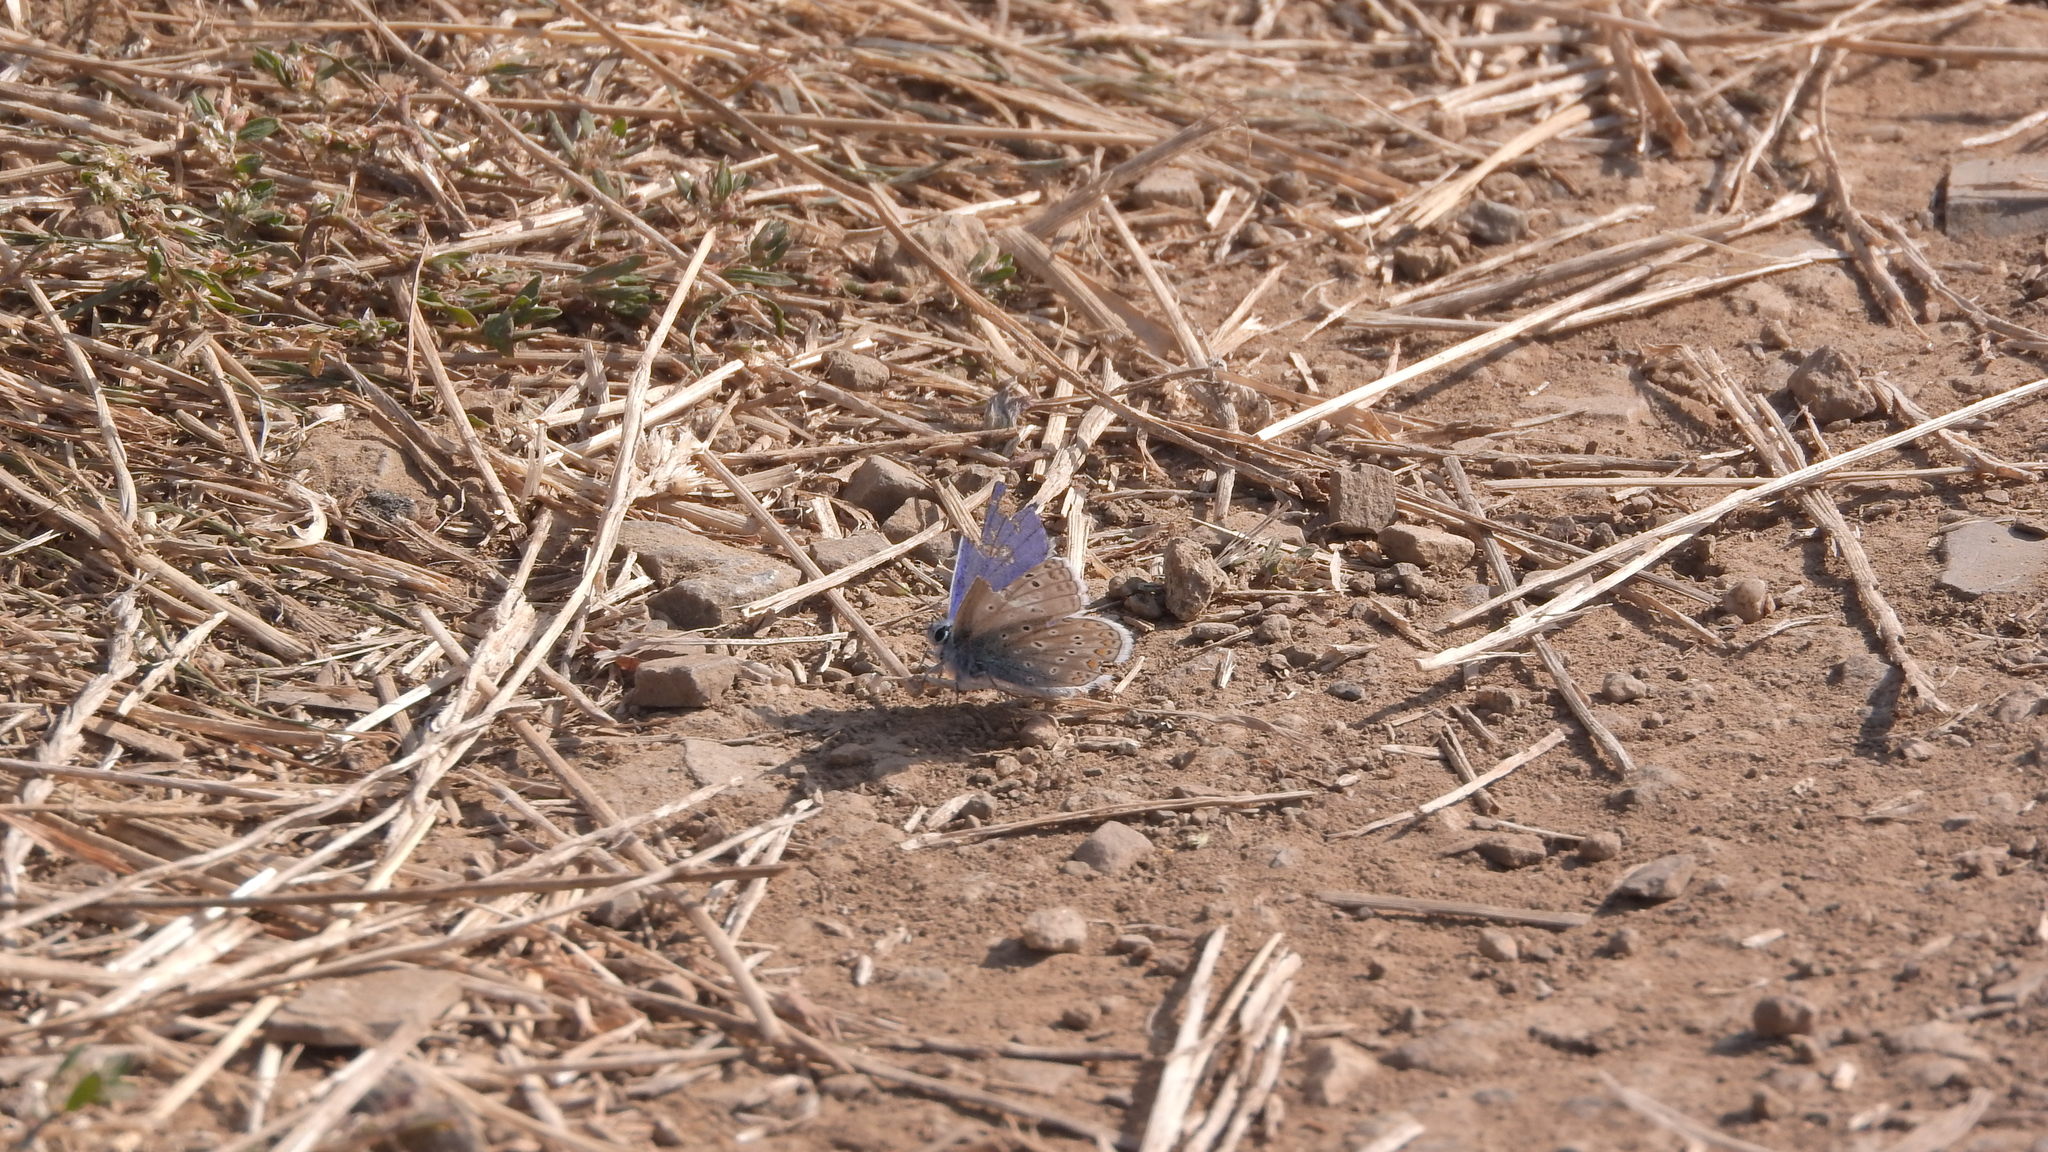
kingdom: Animalia
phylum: Arthropoda
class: Insecta
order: Lepidoptera
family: Lycaenidae
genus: Polyommatus
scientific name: Polyommatus icarus
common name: Common blue
